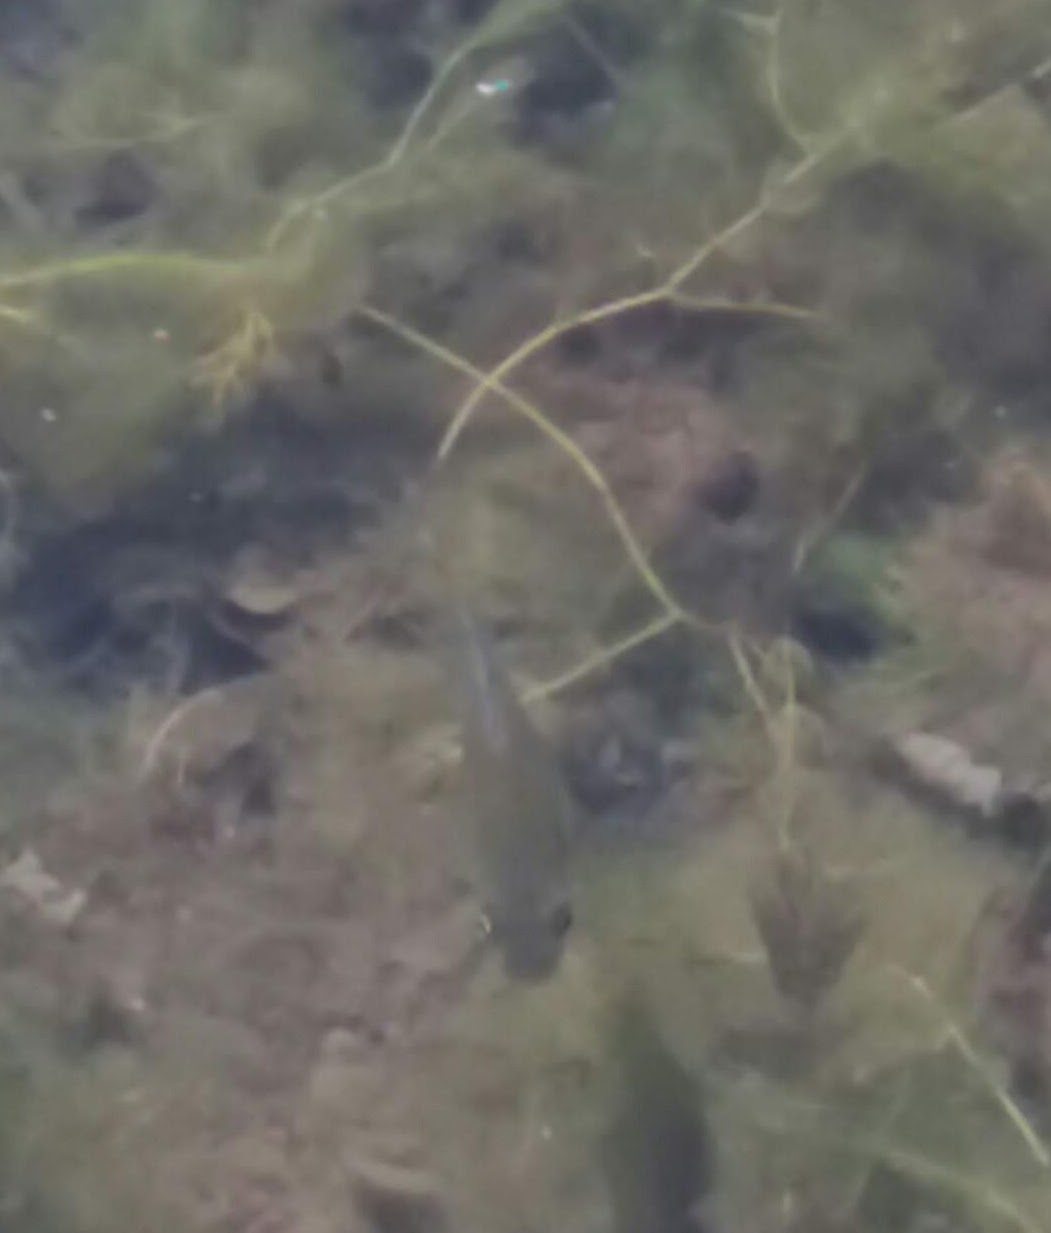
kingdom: Animalia
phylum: Chordata
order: Perciformes
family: Centrarchidae
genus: Lepomis
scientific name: Lepomis macrochirus
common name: Bluegill
